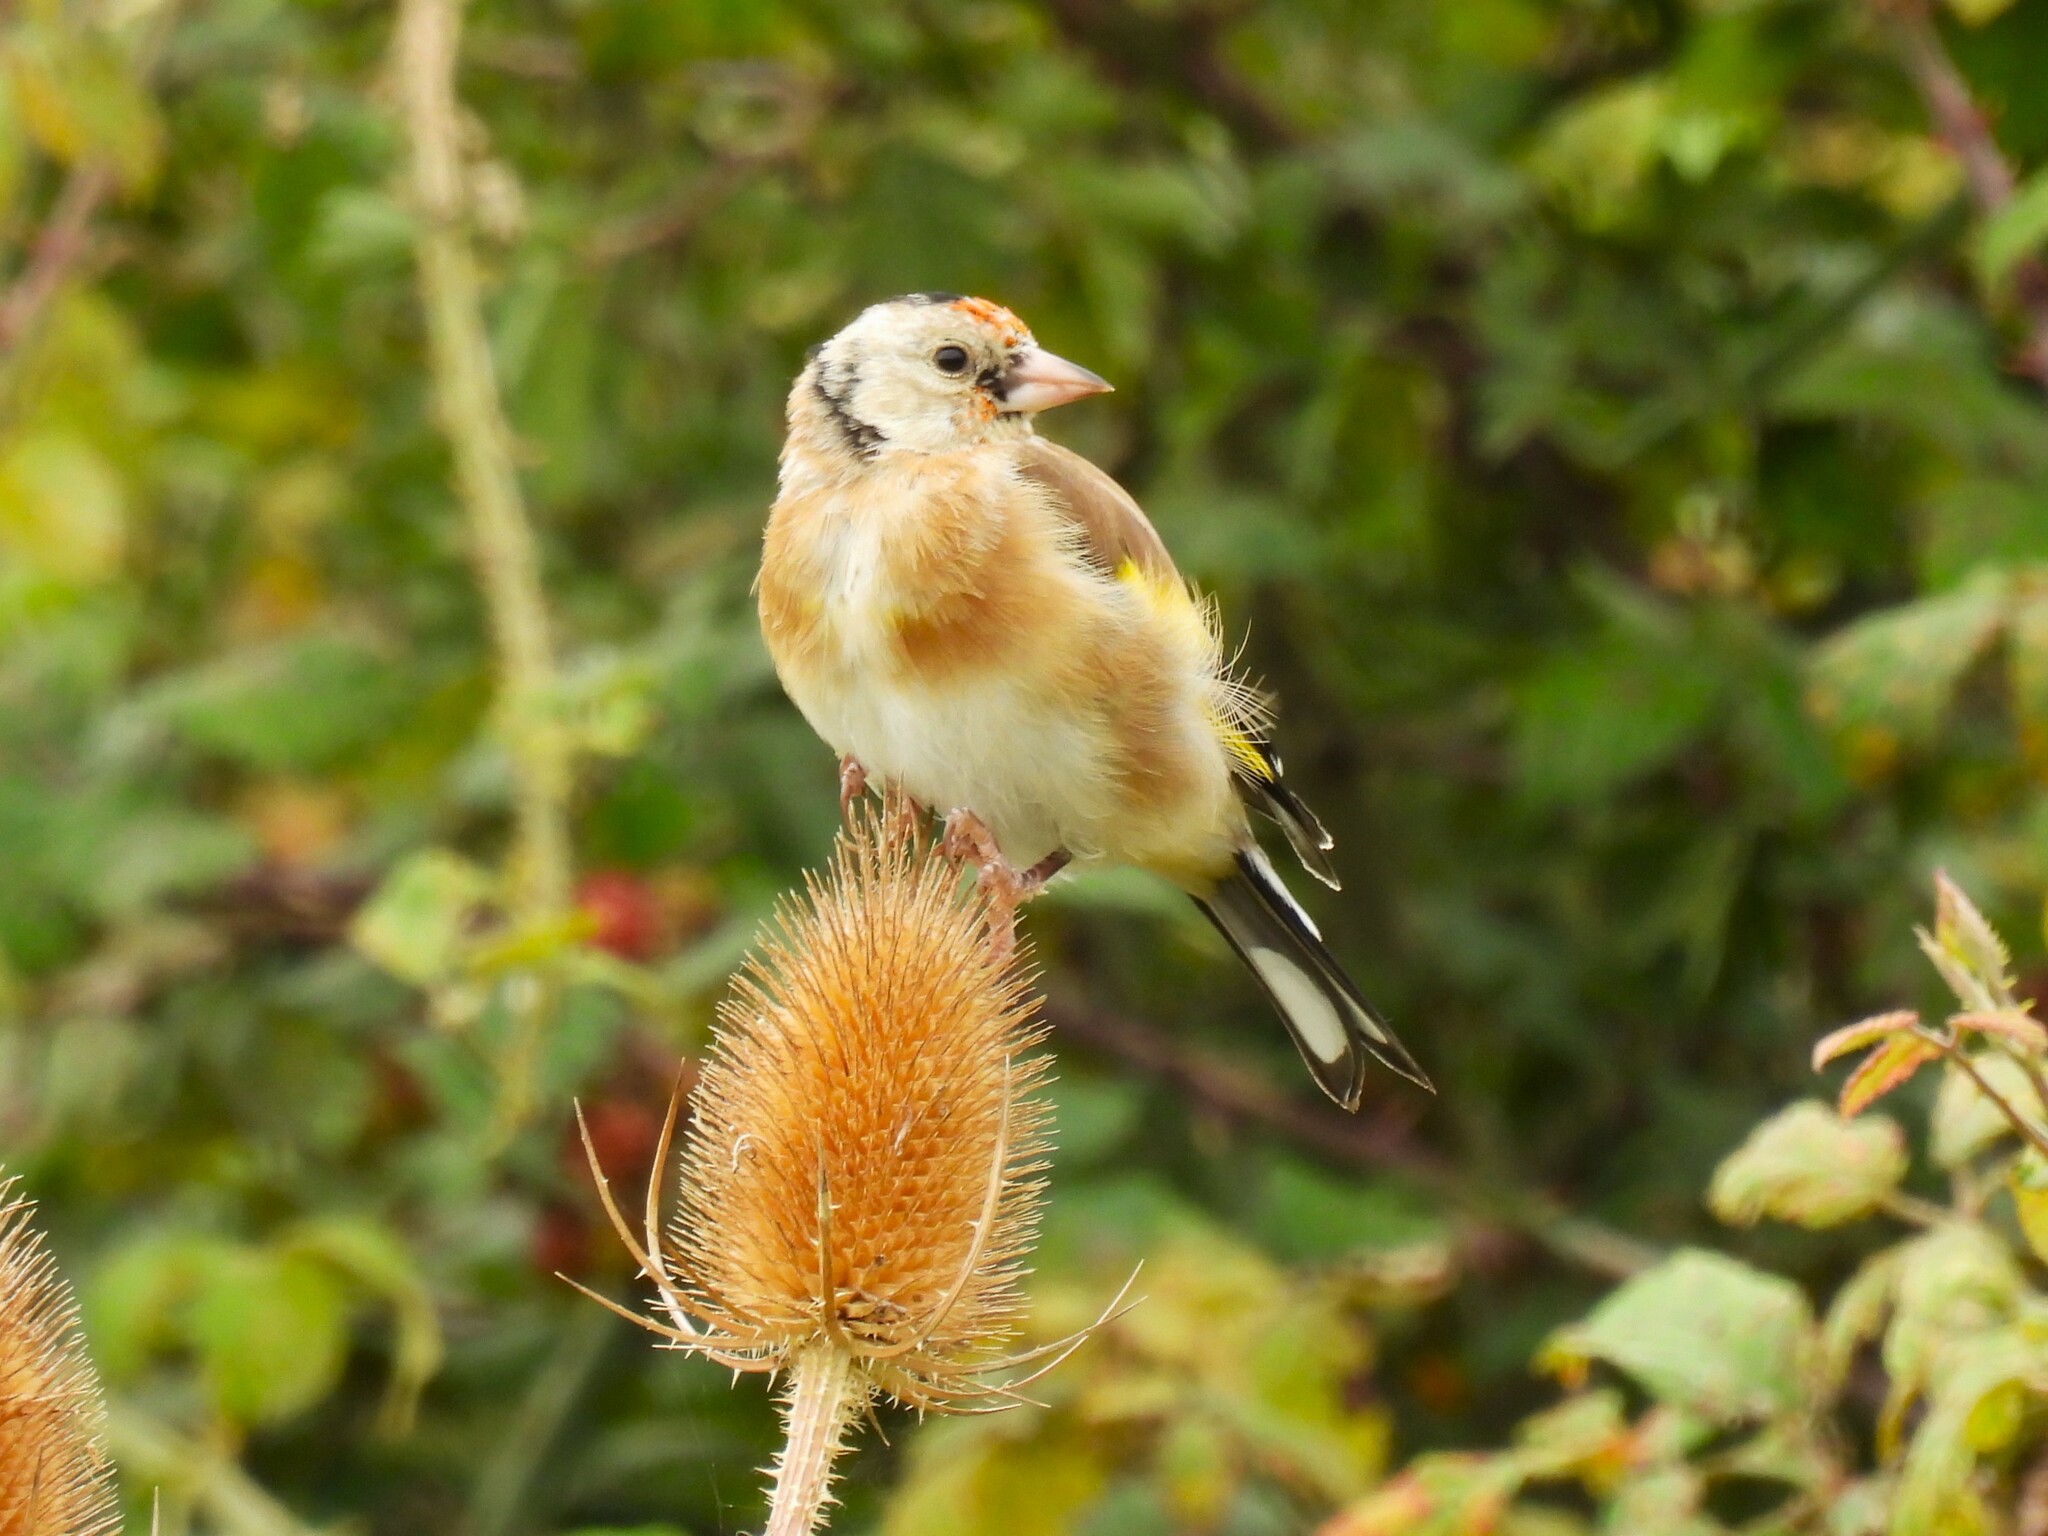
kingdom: Animalia
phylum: Chordata
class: Aves
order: Passeriformes
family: Fringillidae
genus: Carduelis
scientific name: Carduelis carduelis
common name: European goldfinch
